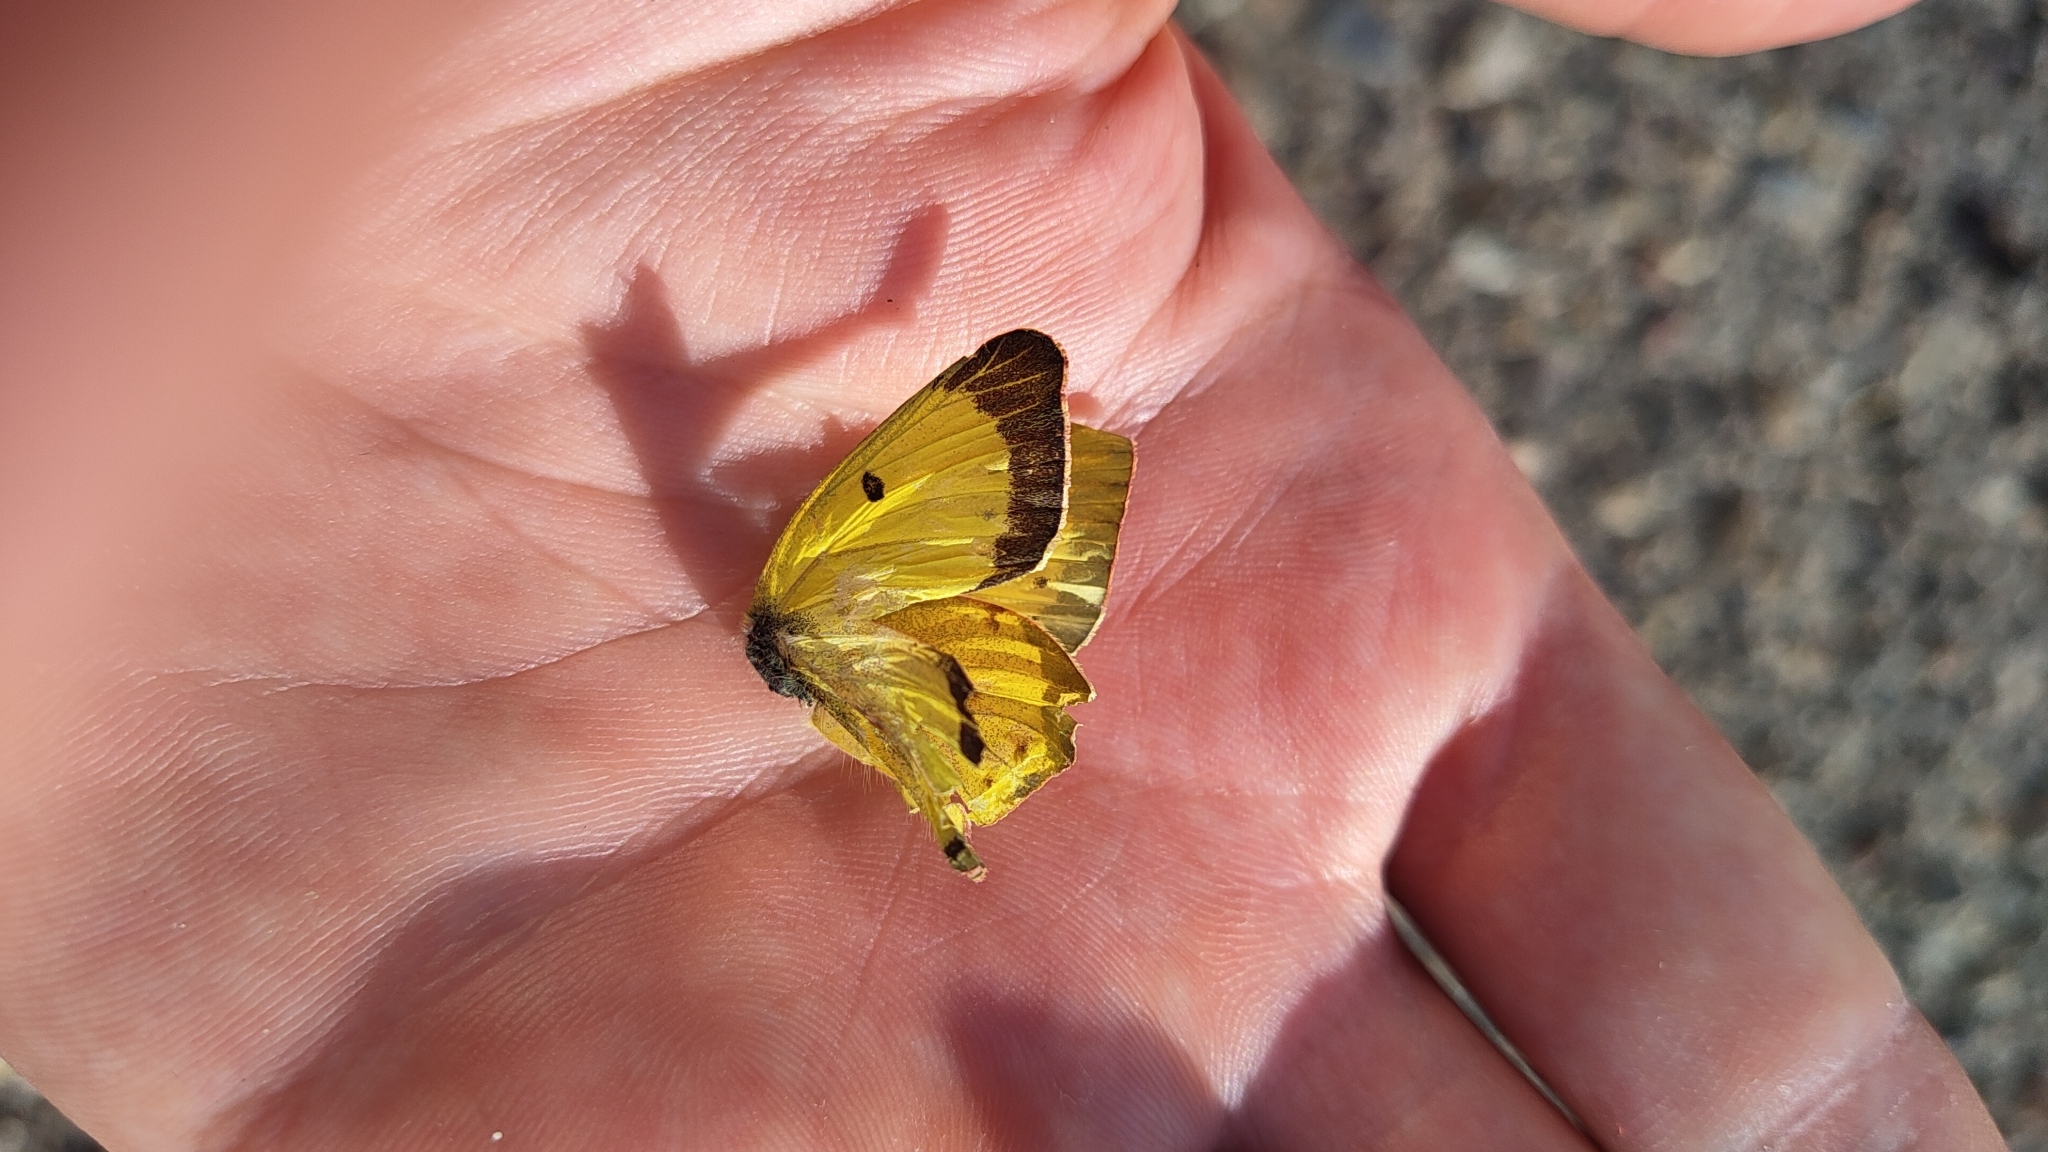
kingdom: Animalia
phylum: Arthropoda
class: Insecta
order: Lepidoptera
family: Pieridae
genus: Colias
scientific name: Colias philodice
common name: Clouded sulphur
